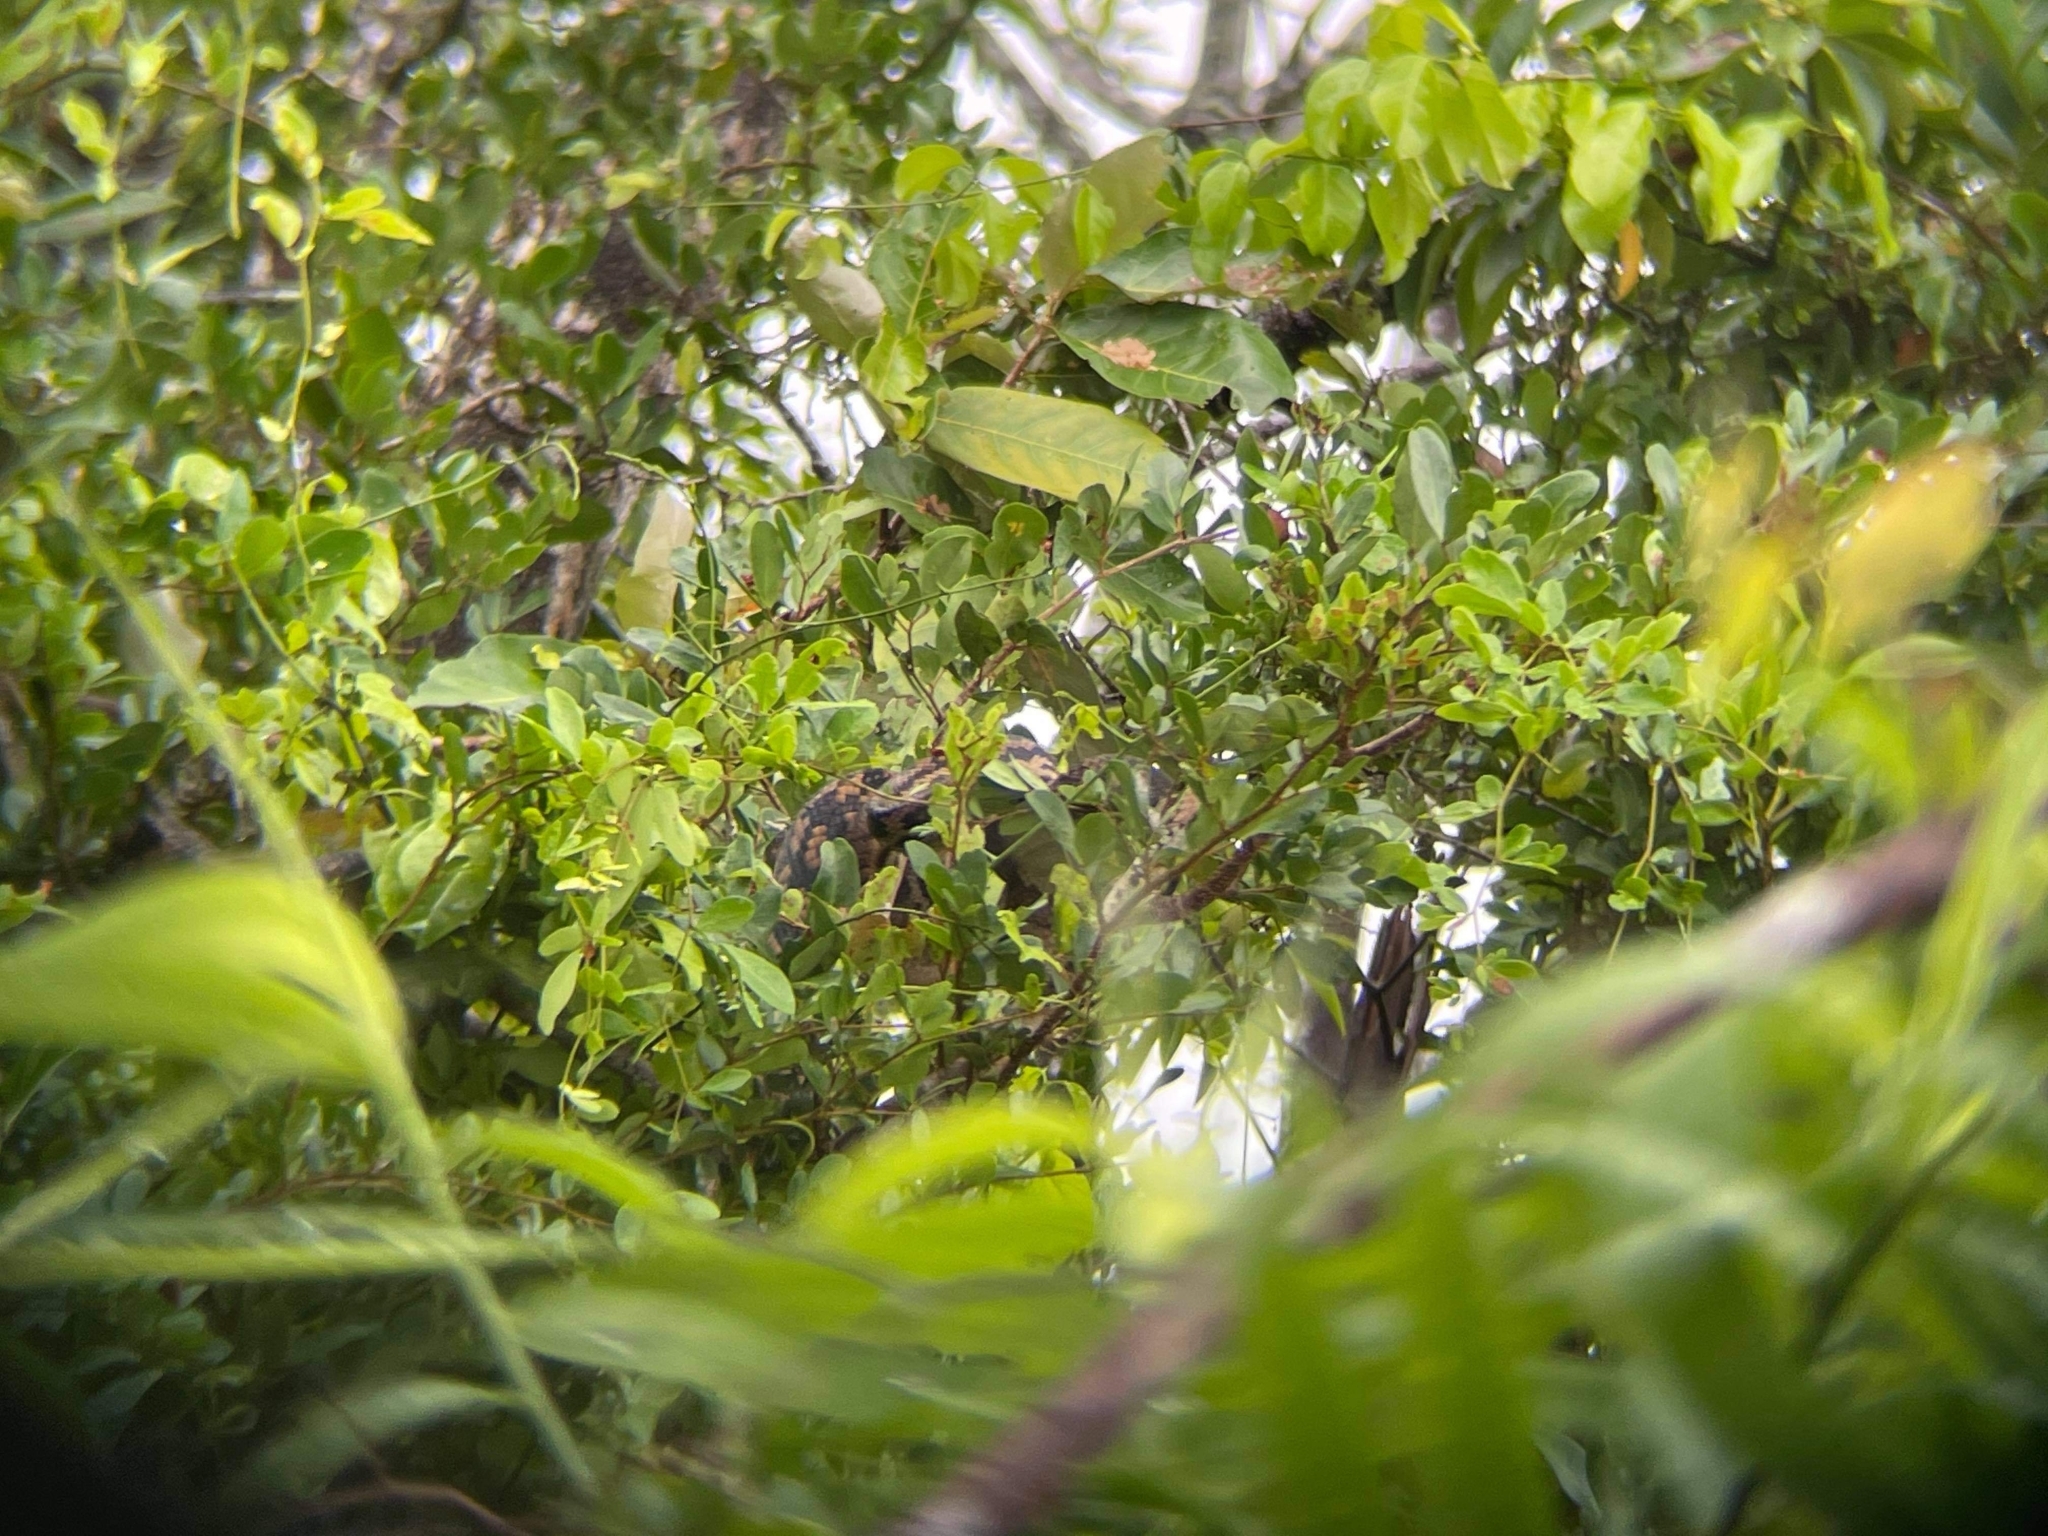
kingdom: Animalia
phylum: Chordata
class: Squamata
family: Pythonidae
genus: Simalia
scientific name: Simalia kinghorni
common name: Scrub python
